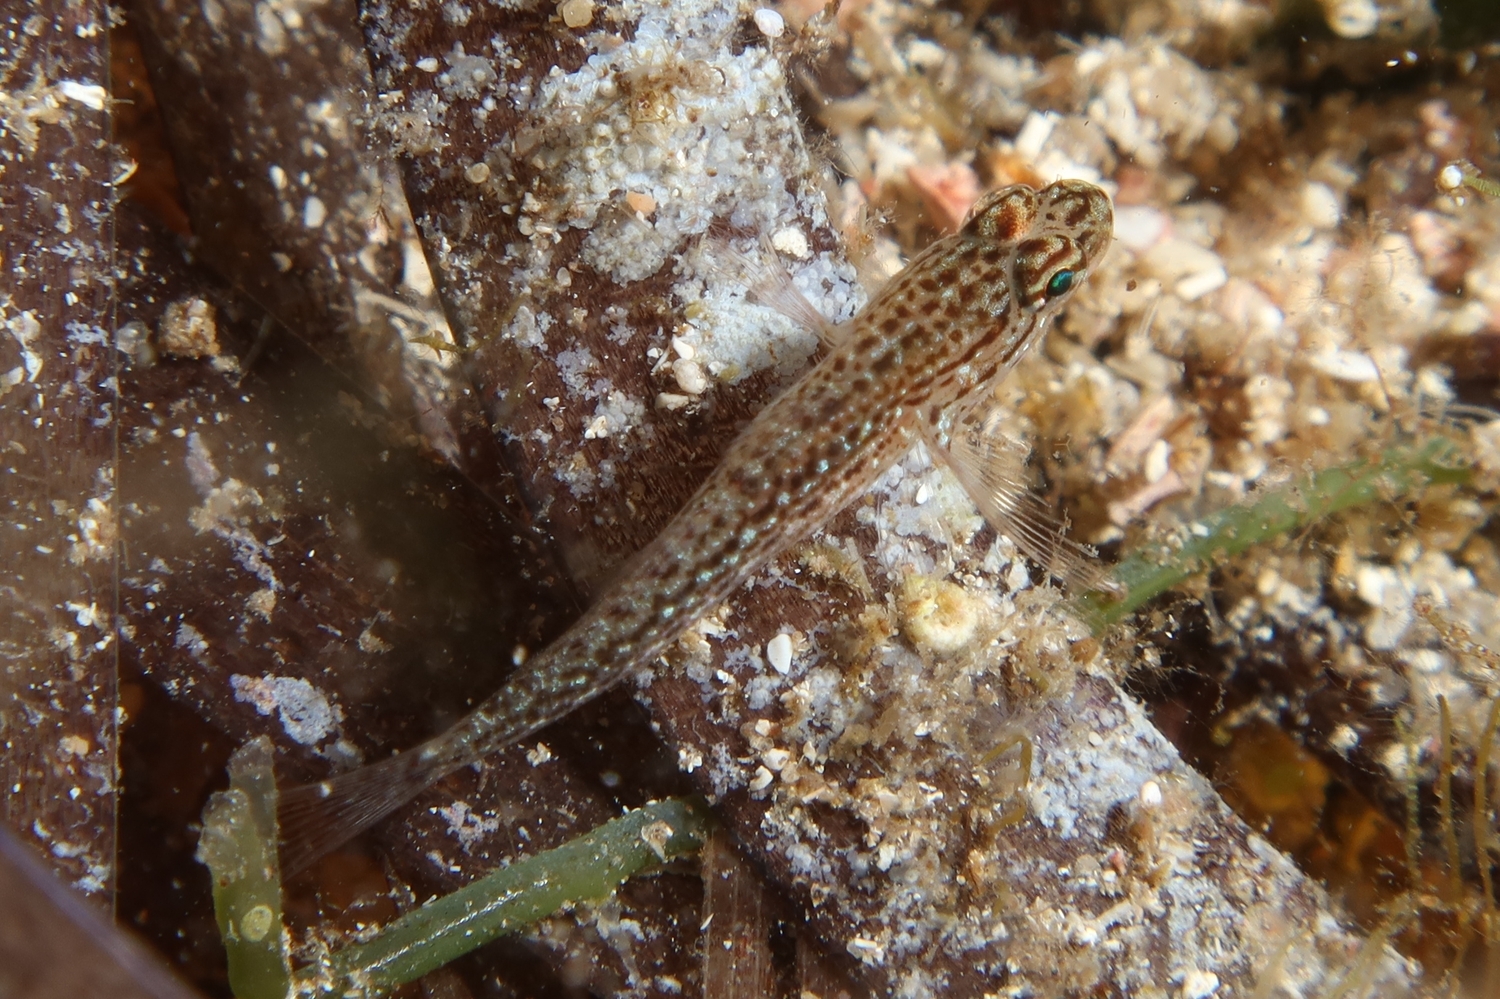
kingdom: Animalia
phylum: Chordata
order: Perciformes
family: Gobiidae
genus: Gobius
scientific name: Gobius fallax
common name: Sarato's goby
